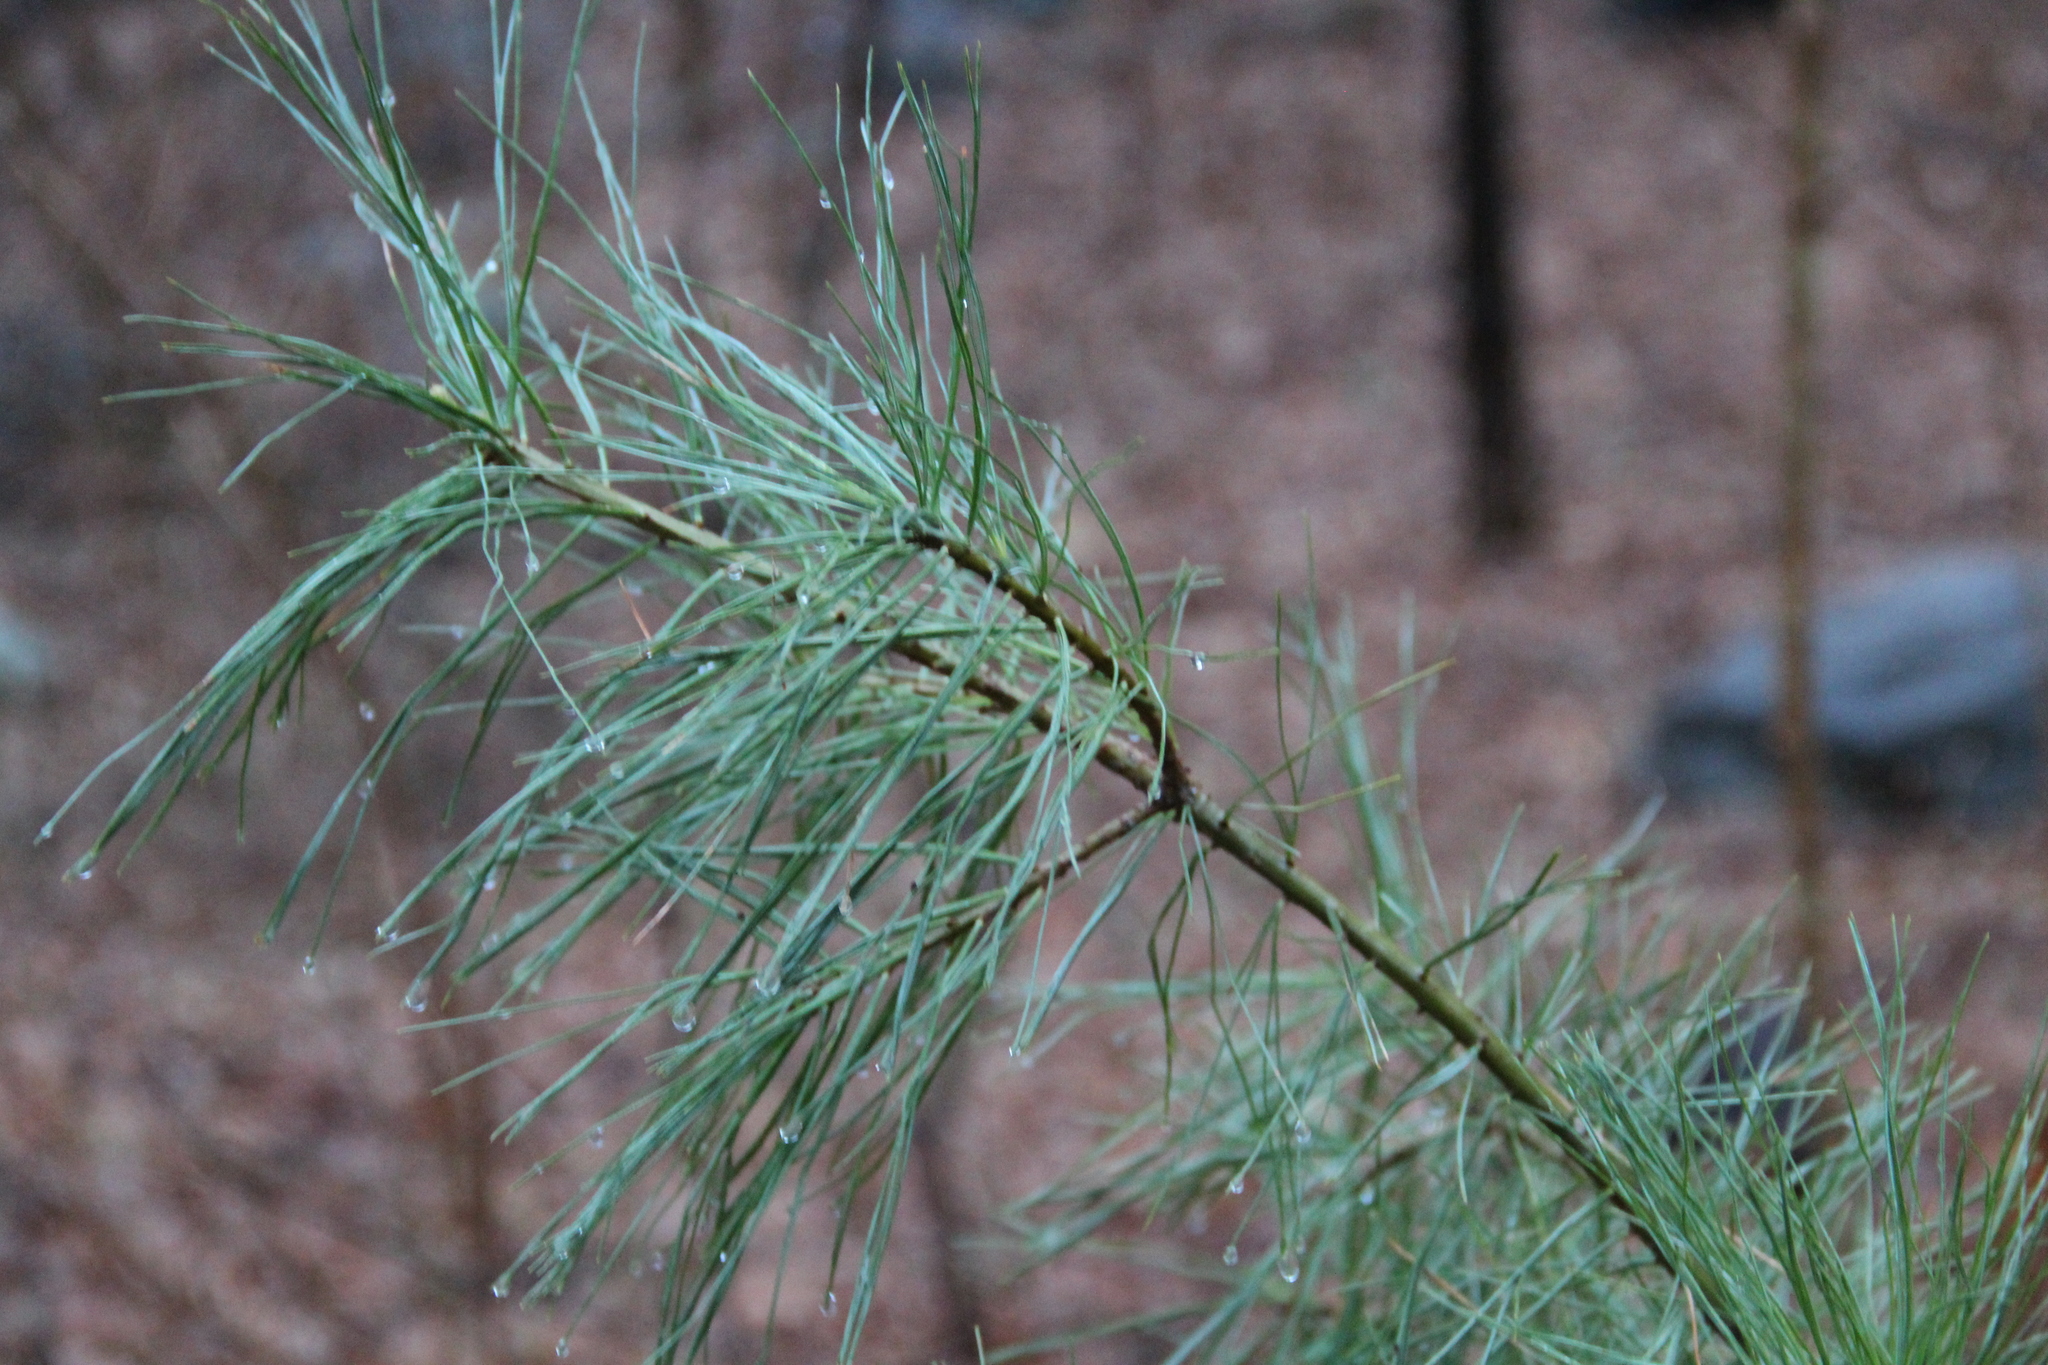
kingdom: Plantae
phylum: Tracheophyta
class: Pinopsida
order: Pinales
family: Pinaceae
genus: Pinus
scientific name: Pinus strobus
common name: Weymouth pine
